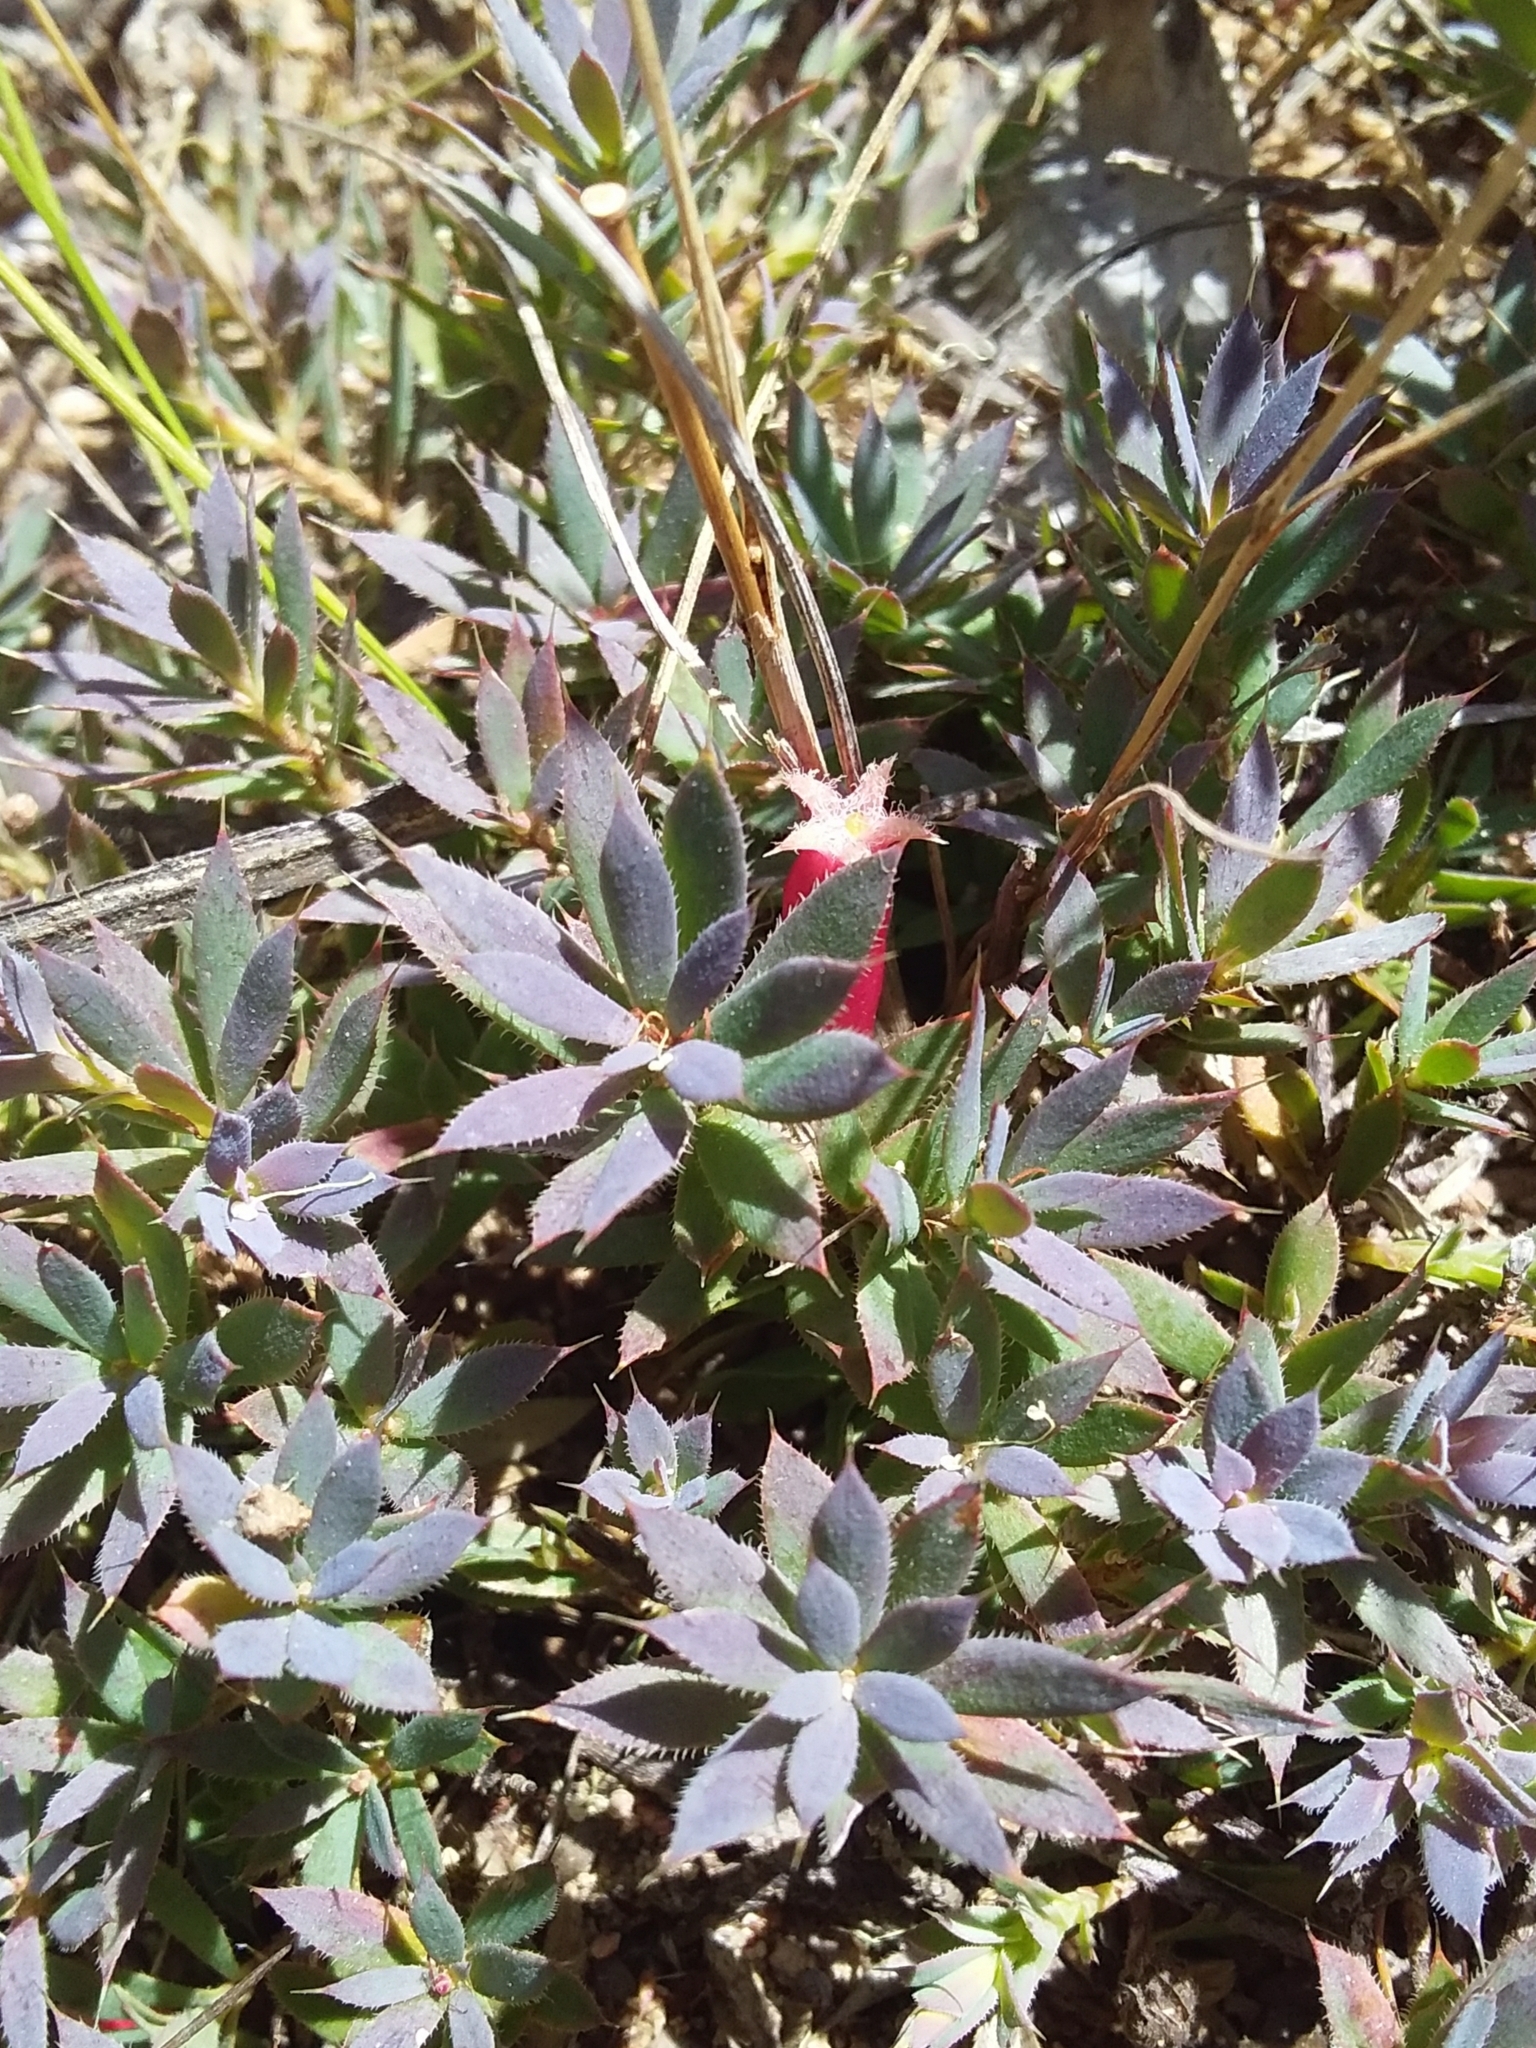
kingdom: Plantae
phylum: Tracheophyta
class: Magnoliopsida
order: Ericales
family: Ericaceae
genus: Styphelia
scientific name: Styphelia humifusa
